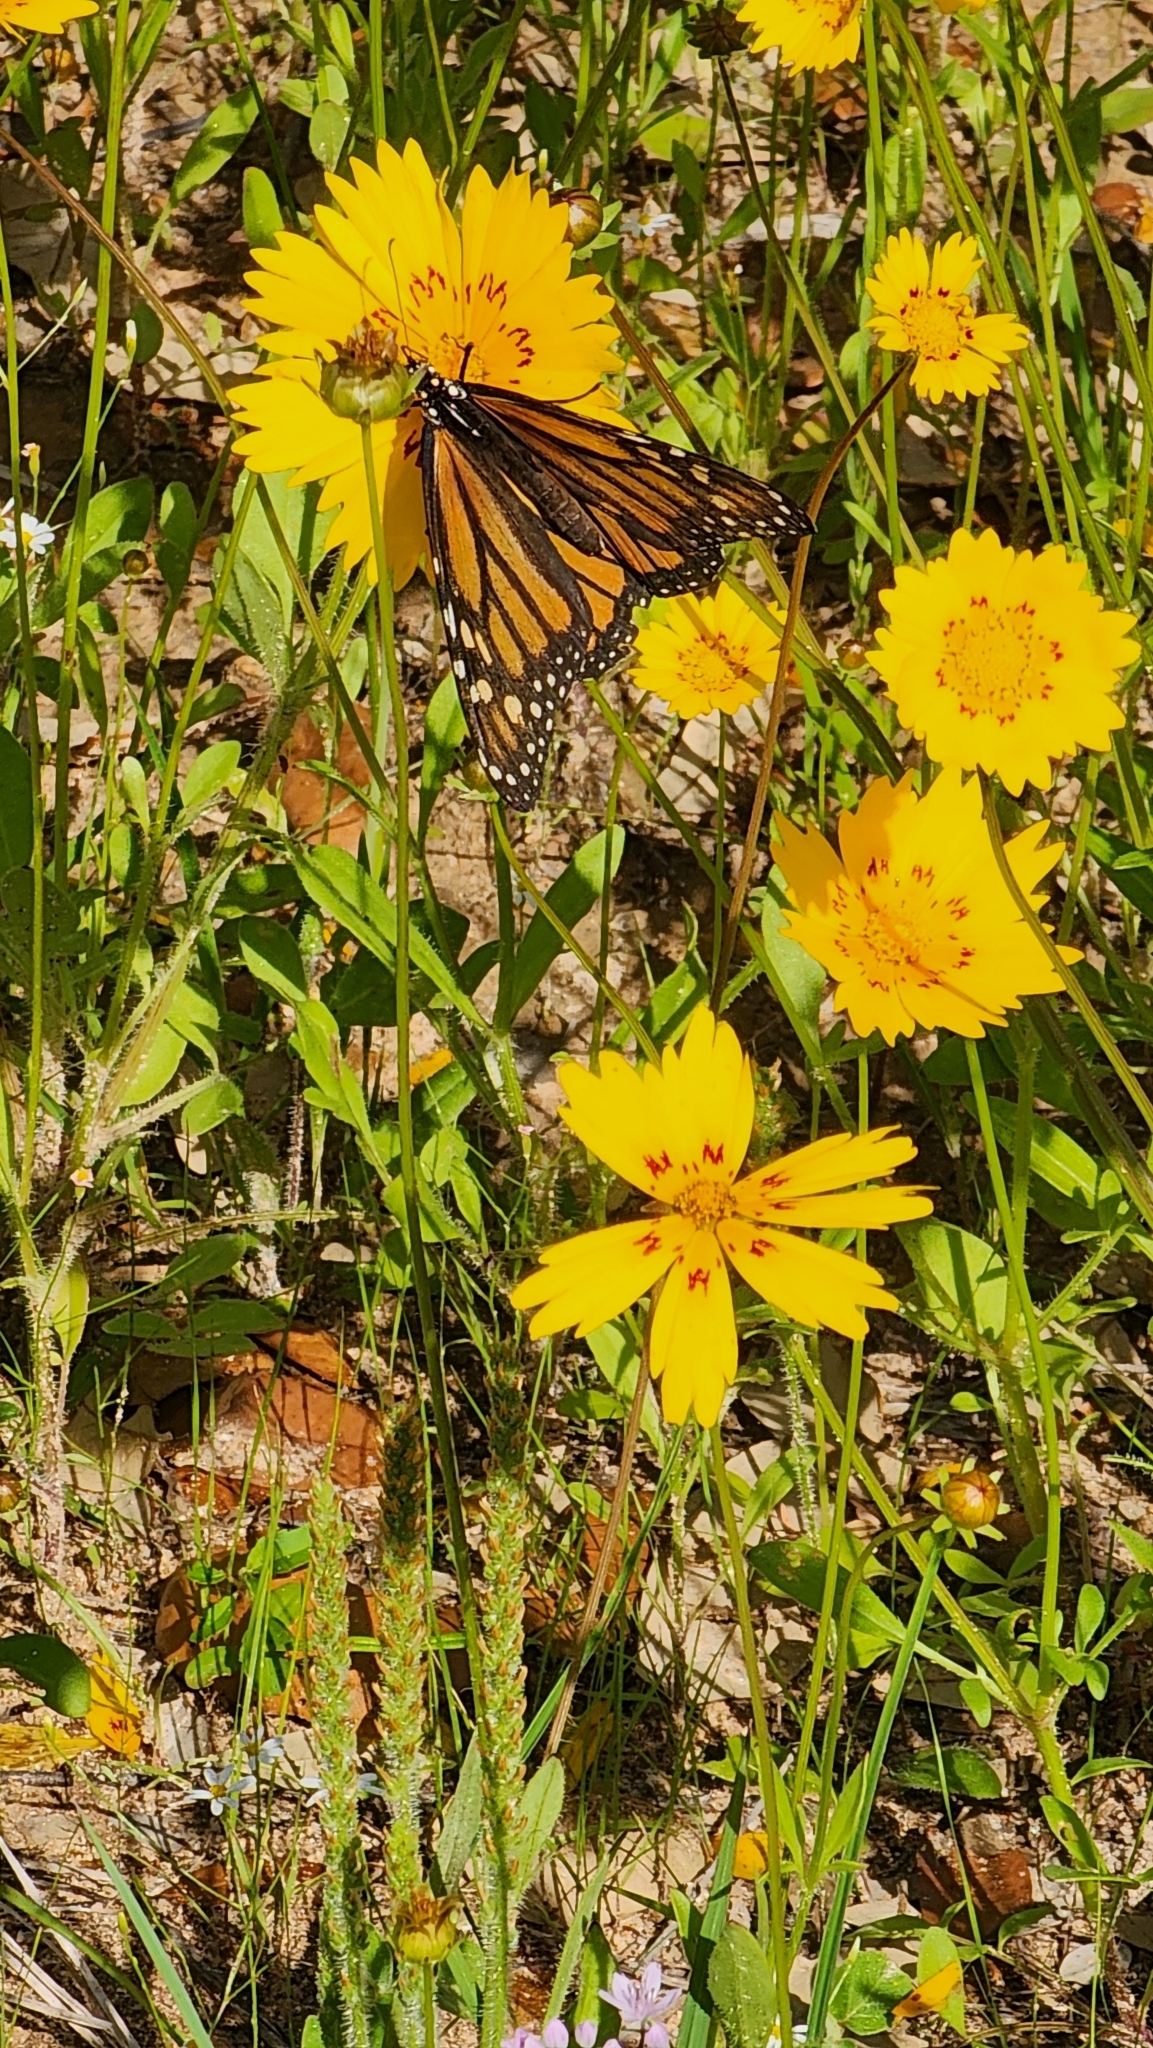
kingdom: Animalia
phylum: Arthropoda
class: Insecta
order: Lepidoptera
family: Nymphalidae
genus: Danaus
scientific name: Danaus plexippus
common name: Monarch
